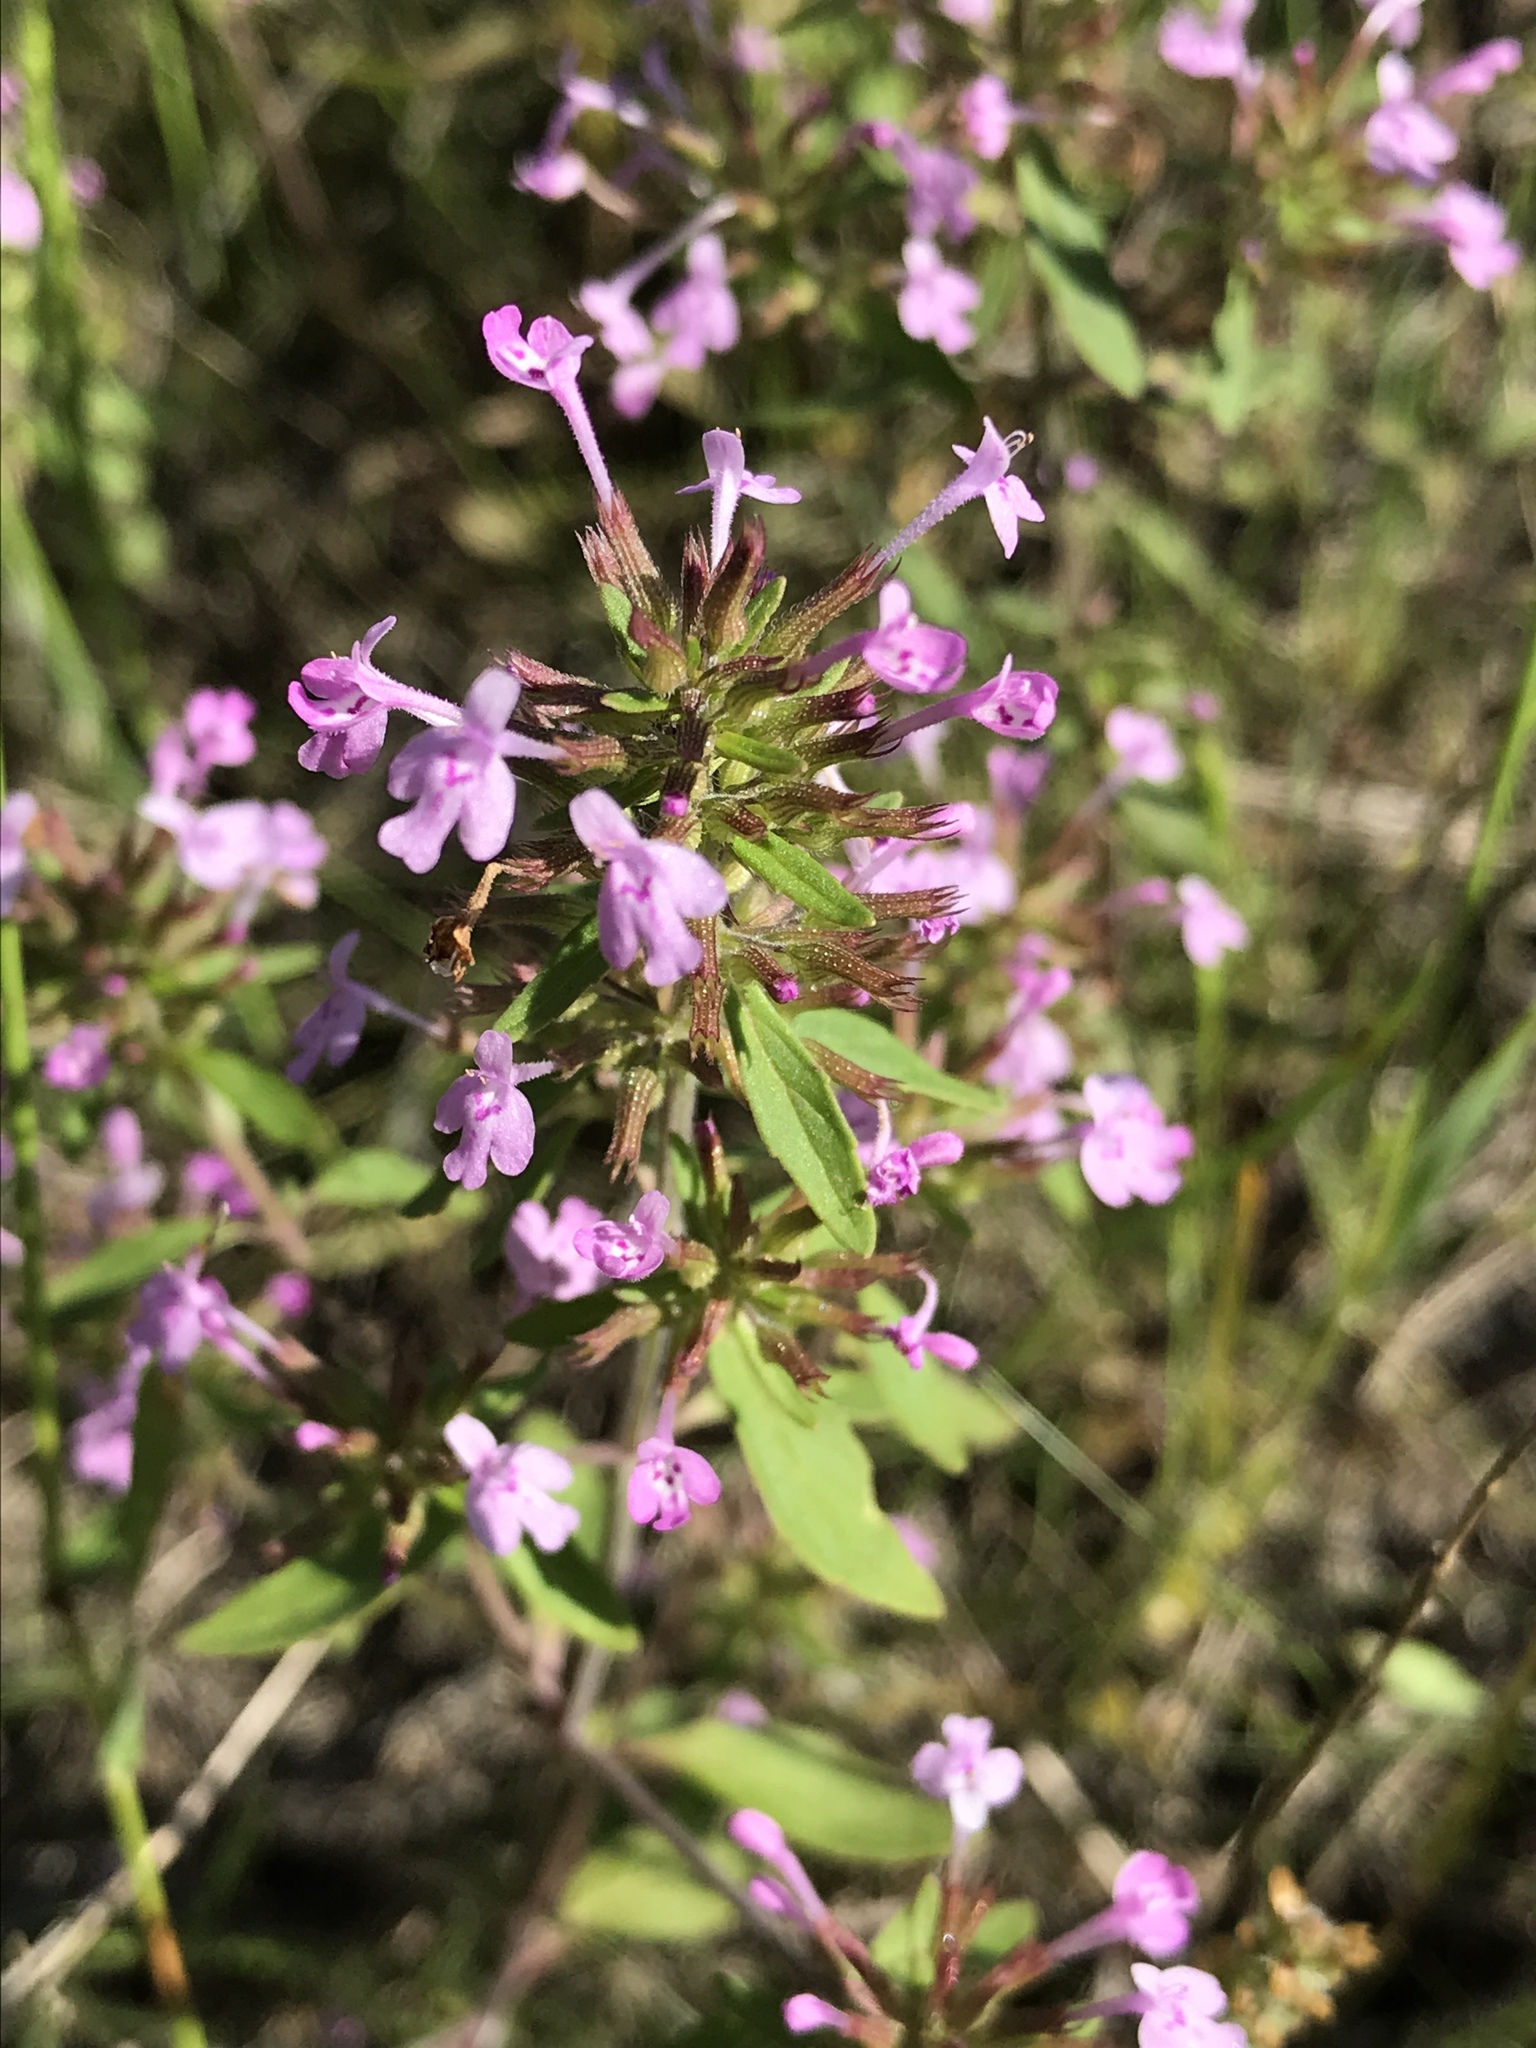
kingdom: Plantae
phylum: Tracheophyta
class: Magnoliopsida
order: Lamiales
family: Lamiaceae
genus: Hedeoma
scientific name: Hedeoma acinoides
